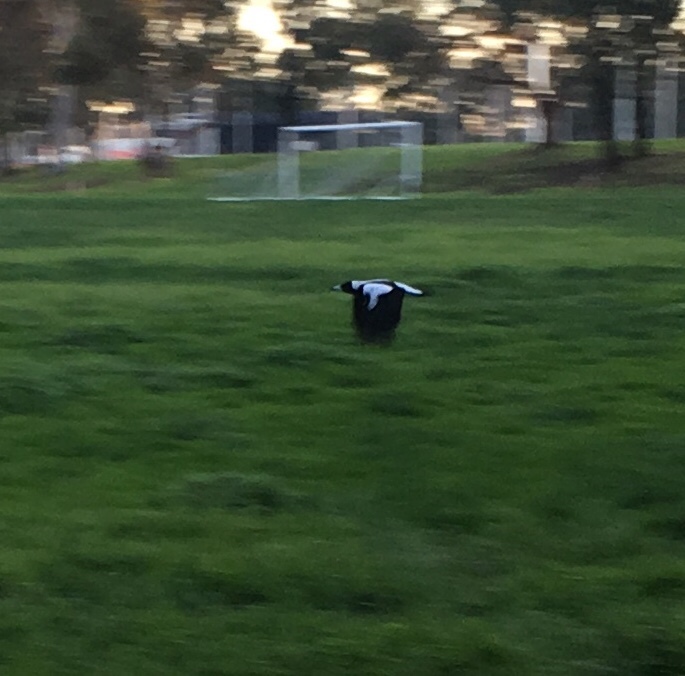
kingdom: Animalia
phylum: Chordata
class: Aves
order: Passeriformes
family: Cracticidae
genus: Gymnorhina
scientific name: Gymnorhina tibicen
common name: Australian magpie
